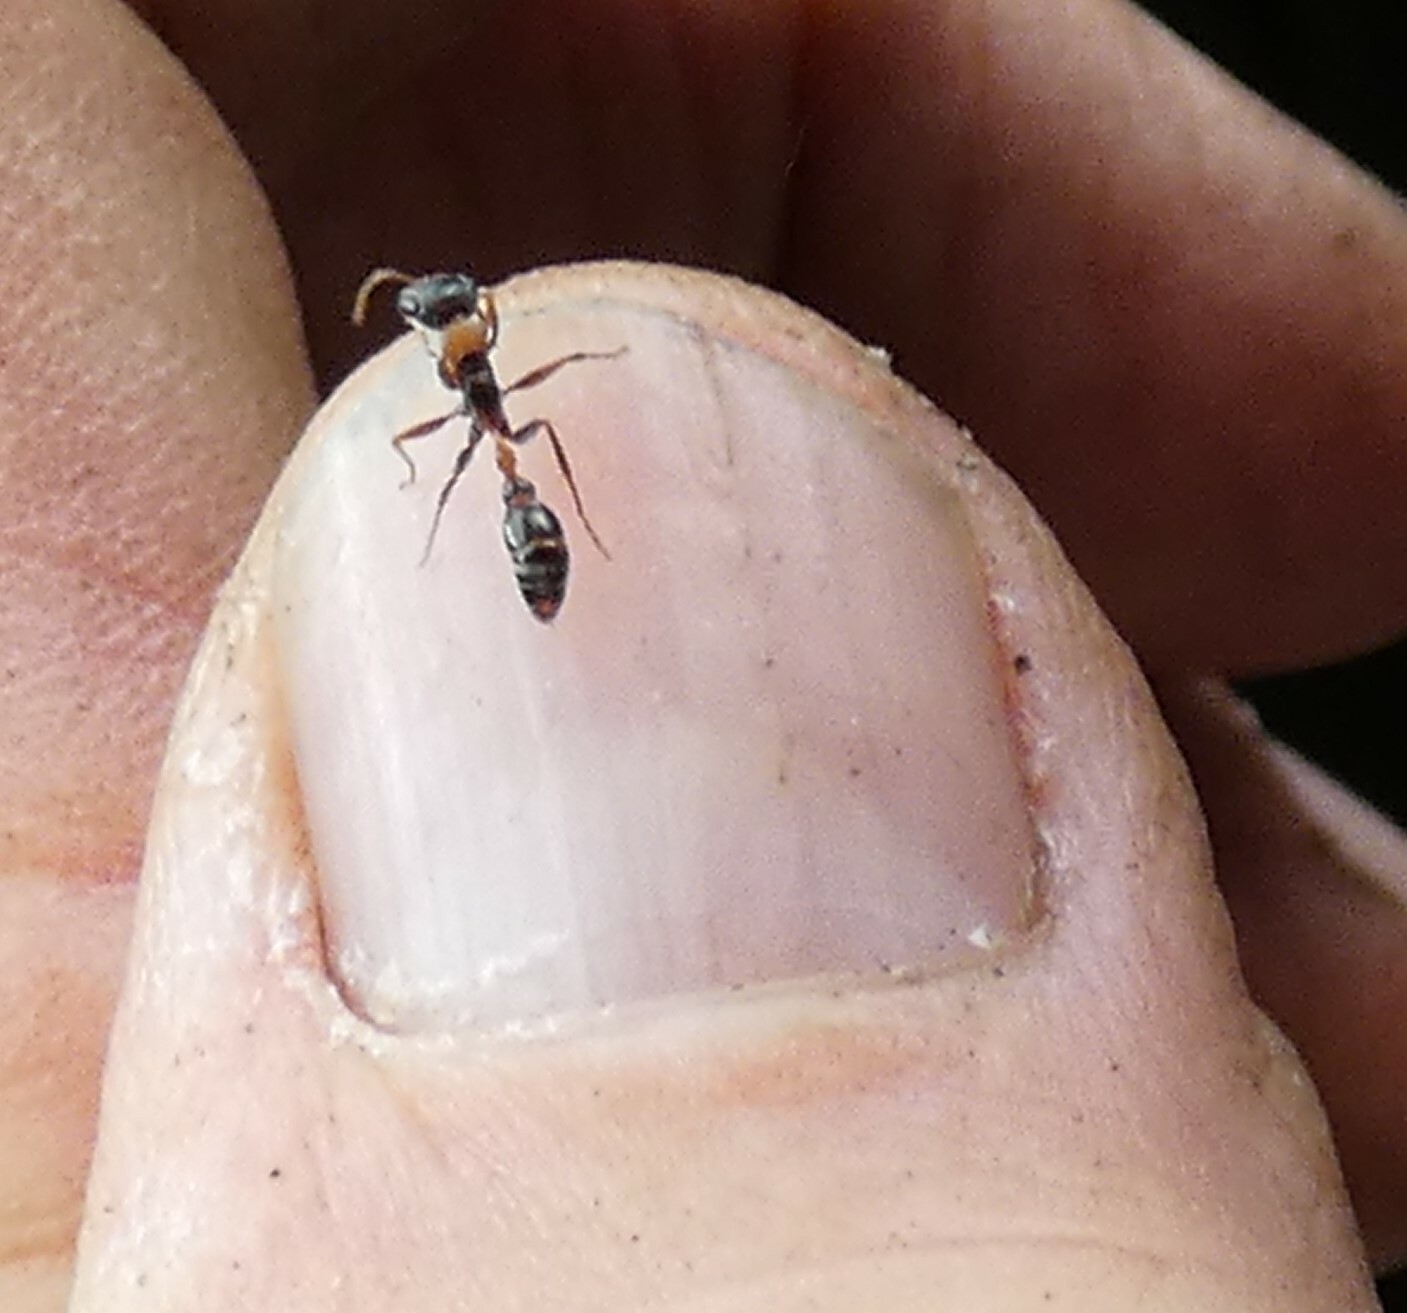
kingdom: Animalia
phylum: Arthropoda
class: Insecta
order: Hymenoptera
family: Formicidae
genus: Pseudomyrmex
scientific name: Pseudomyrmex gracilis
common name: Graceful twig ant
